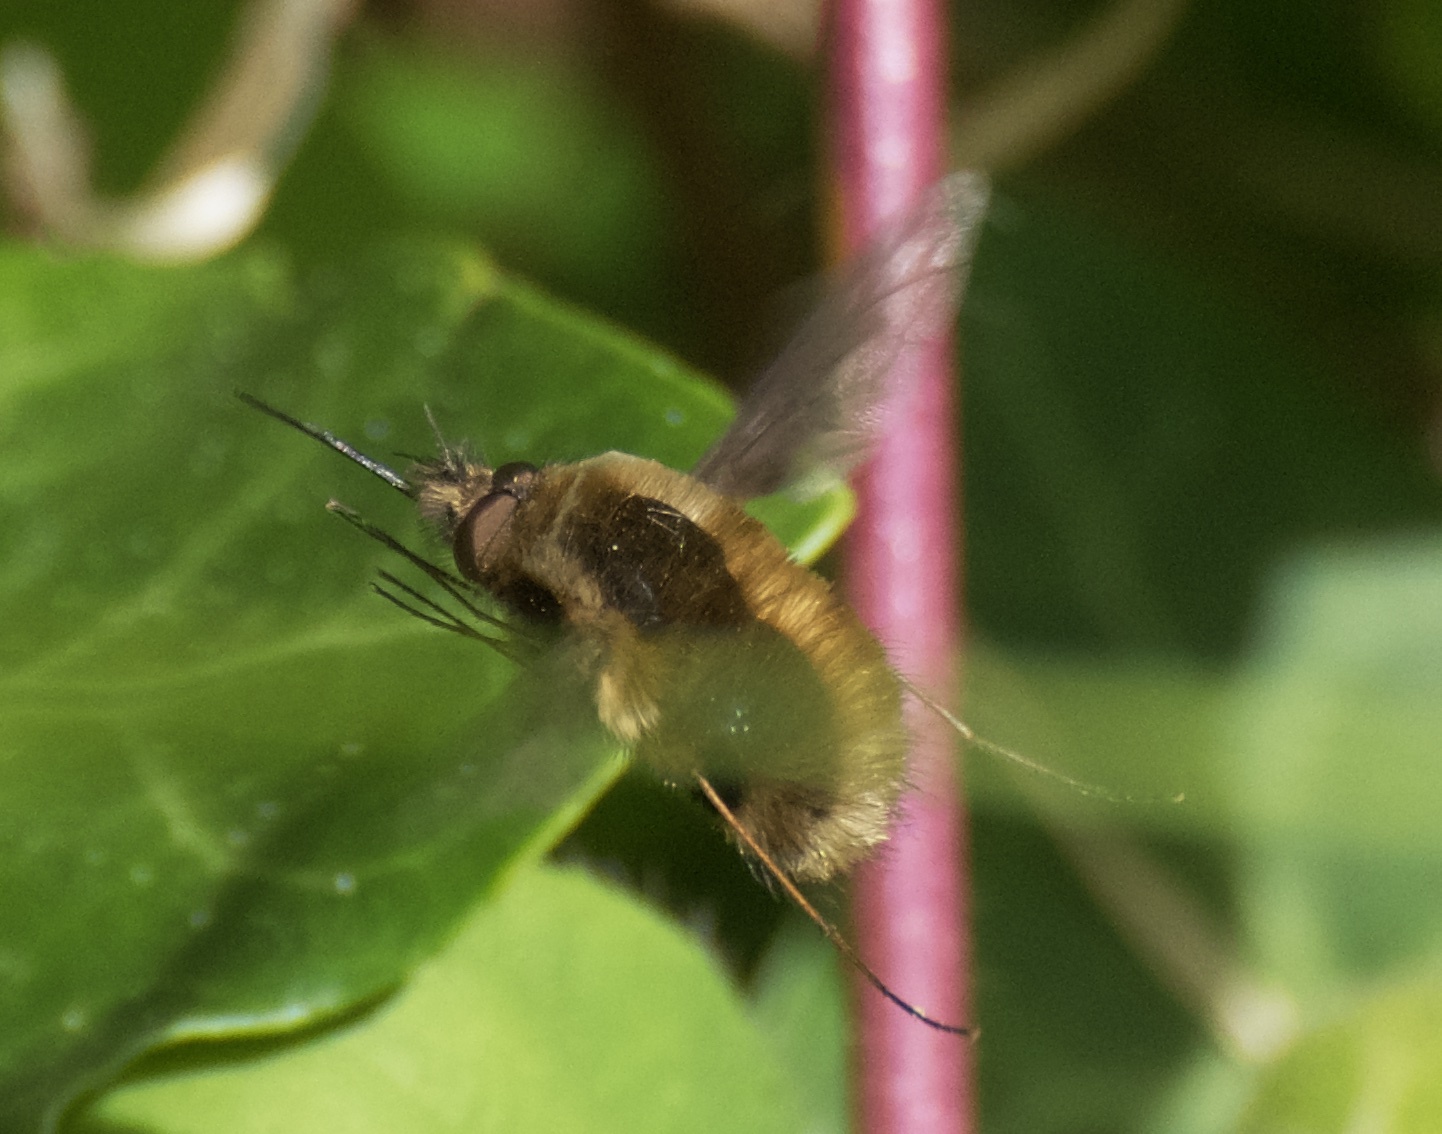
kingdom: Animalia
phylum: Arthropoda
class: Insecta
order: Diptera
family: Bombyliidae
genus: Bombylius
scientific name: Bombylius major
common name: Bee fly
